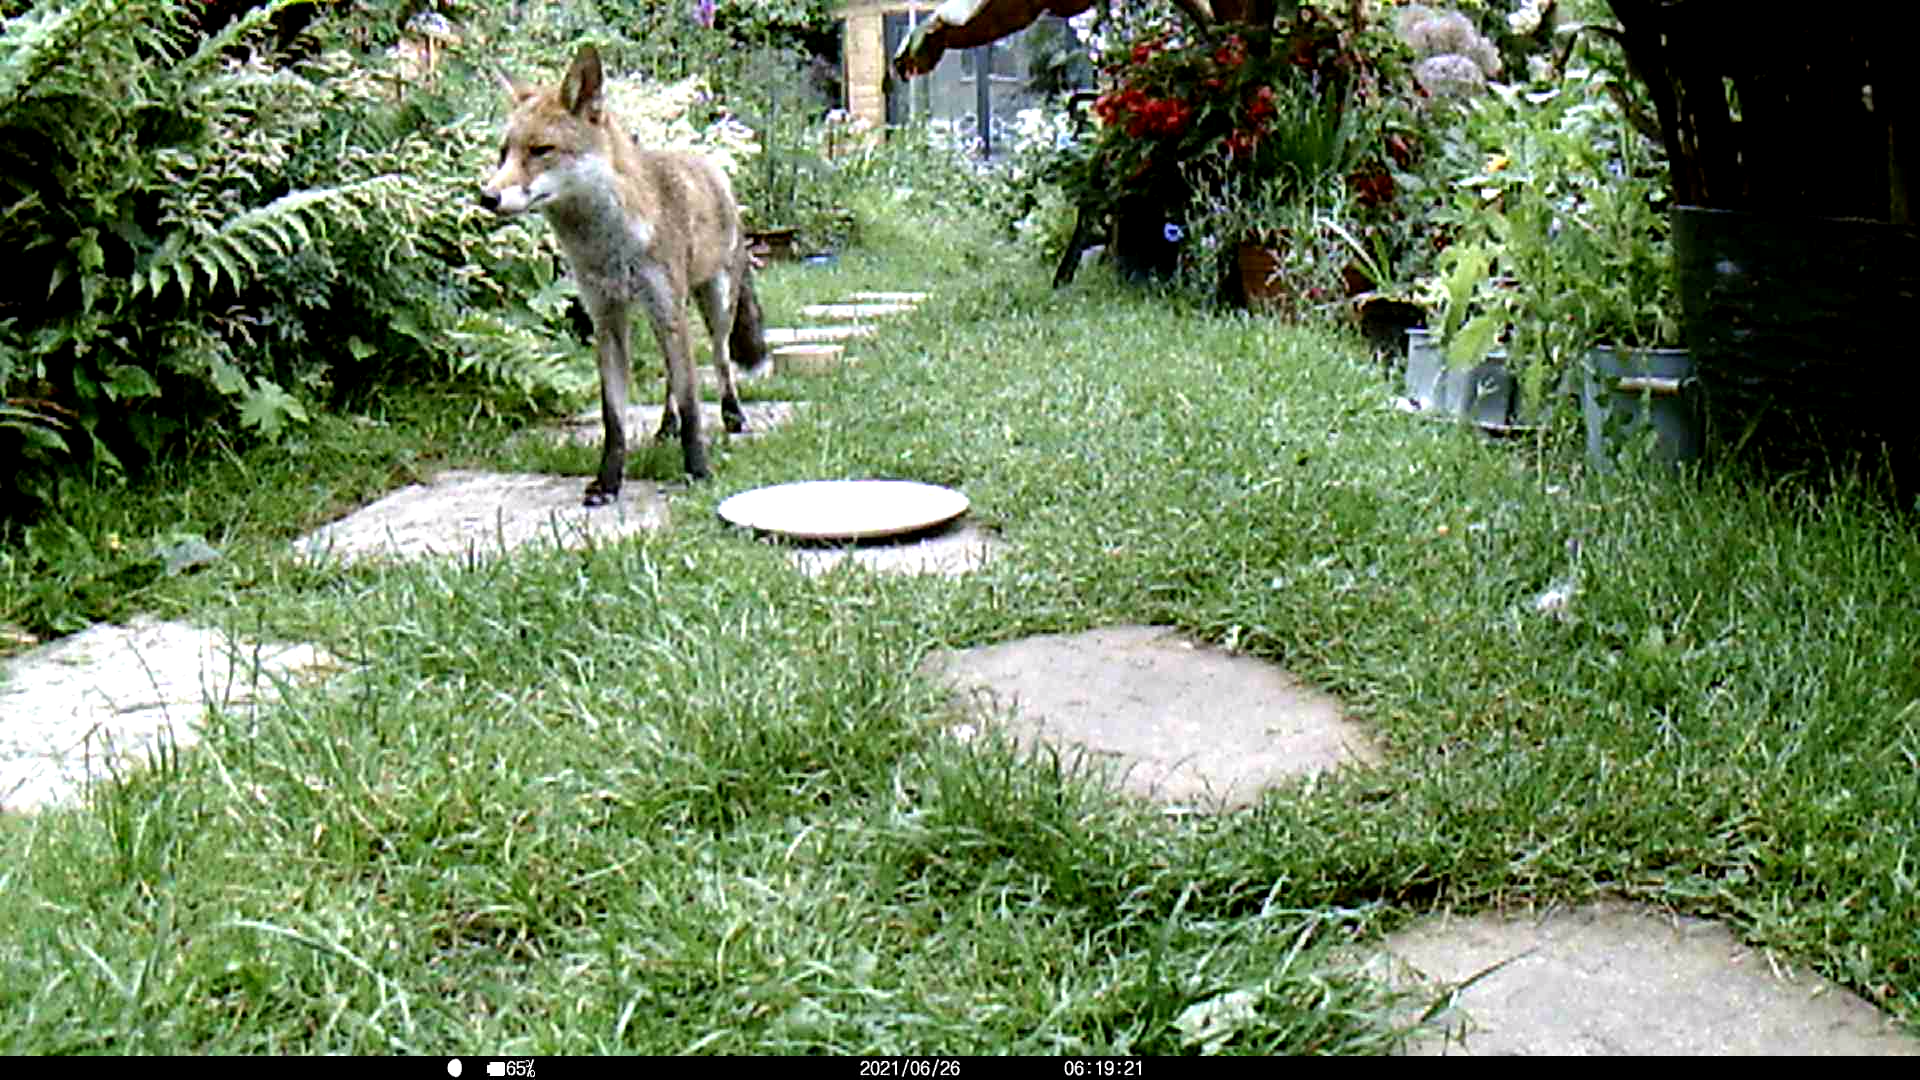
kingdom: Animalia
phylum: Chordata
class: Mammalia
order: Carnivora
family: Canidae
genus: Vulpes
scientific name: Vulpes vulpes
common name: Red fox
